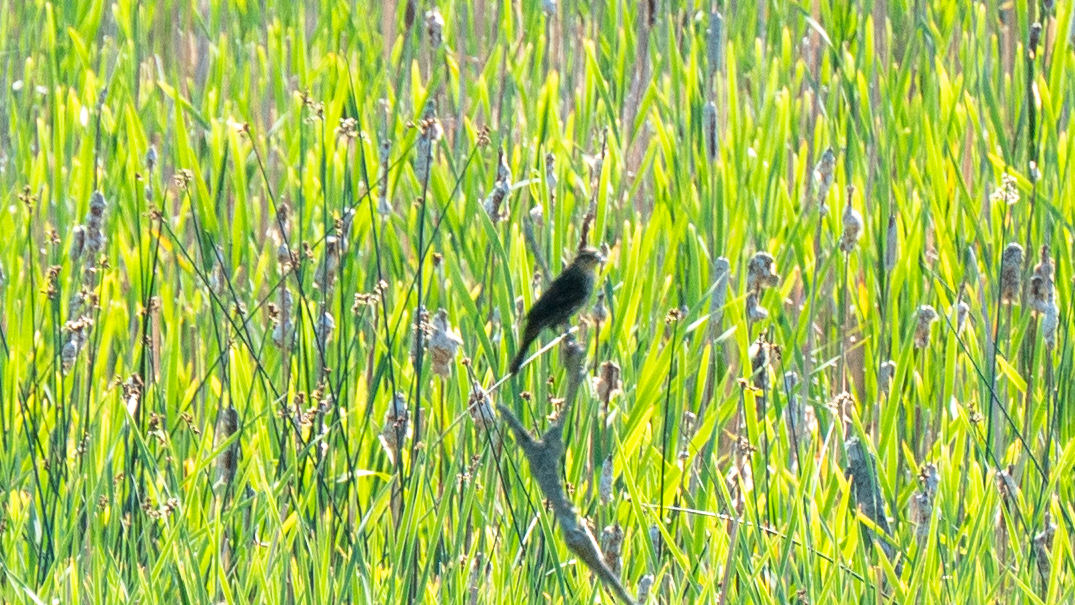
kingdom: Animalia
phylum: Chordata
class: Aves
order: Passeriformes
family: Icteridae
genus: Agelaius
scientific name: Agelaius phoeniceus
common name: Red-winged blackbird
